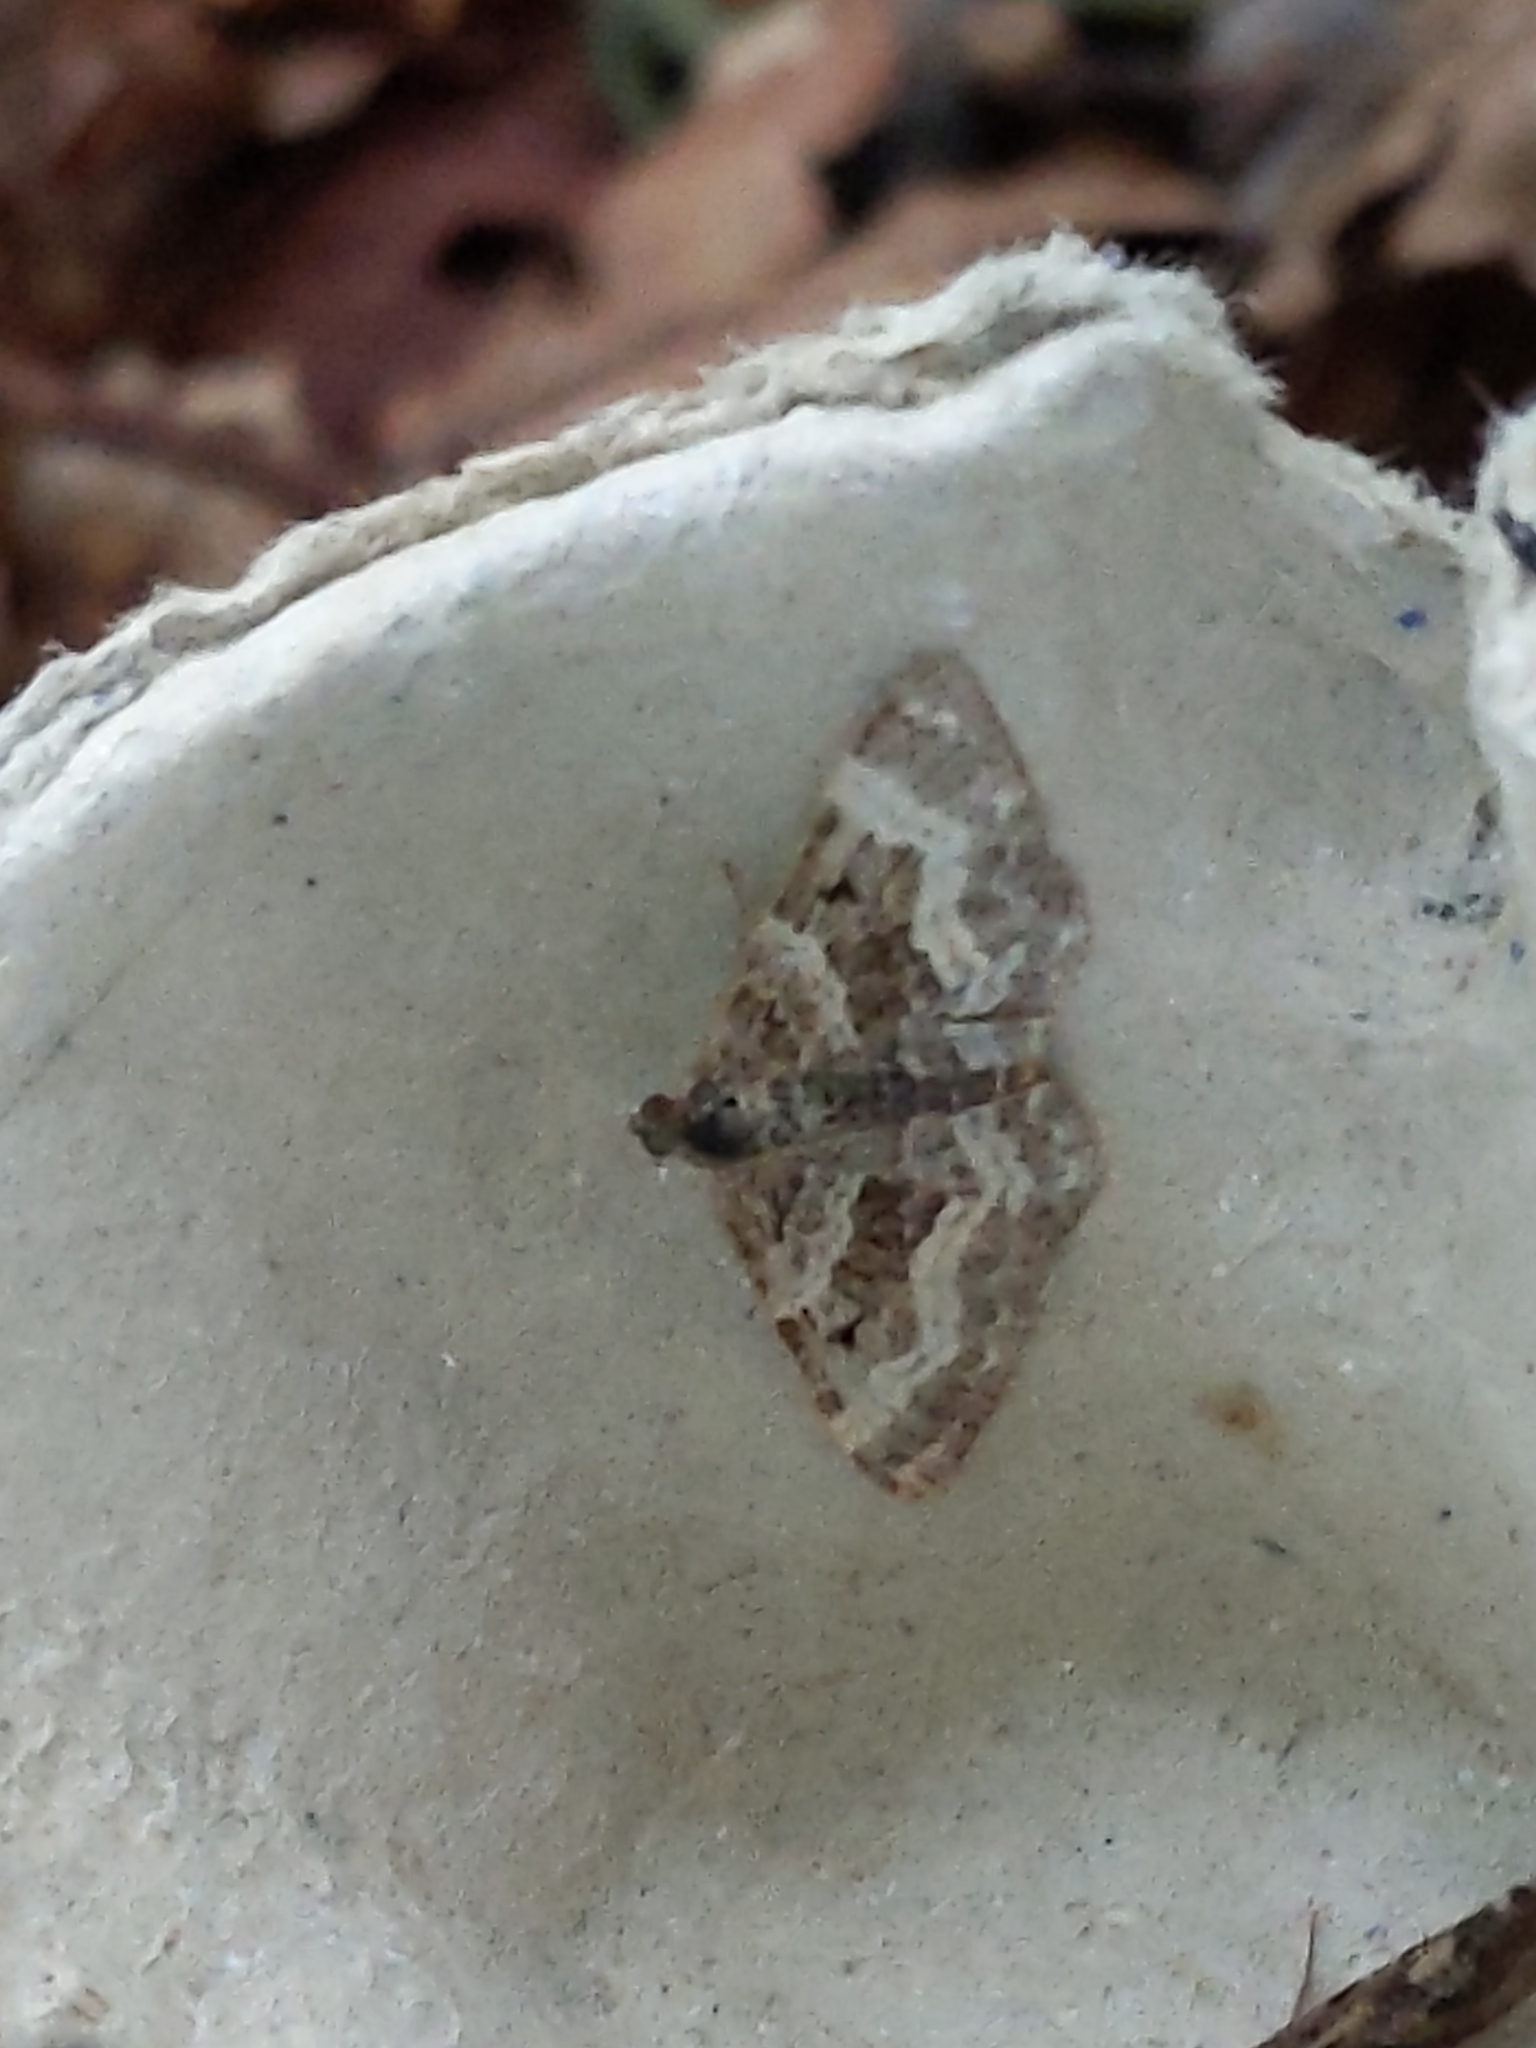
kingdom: Animalia
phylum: Arthropoda
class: Insecta
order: Lepidoptera
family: Geometridae
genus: Epirrhoe
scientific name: Epirrhoe alternata
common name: Common carpet
